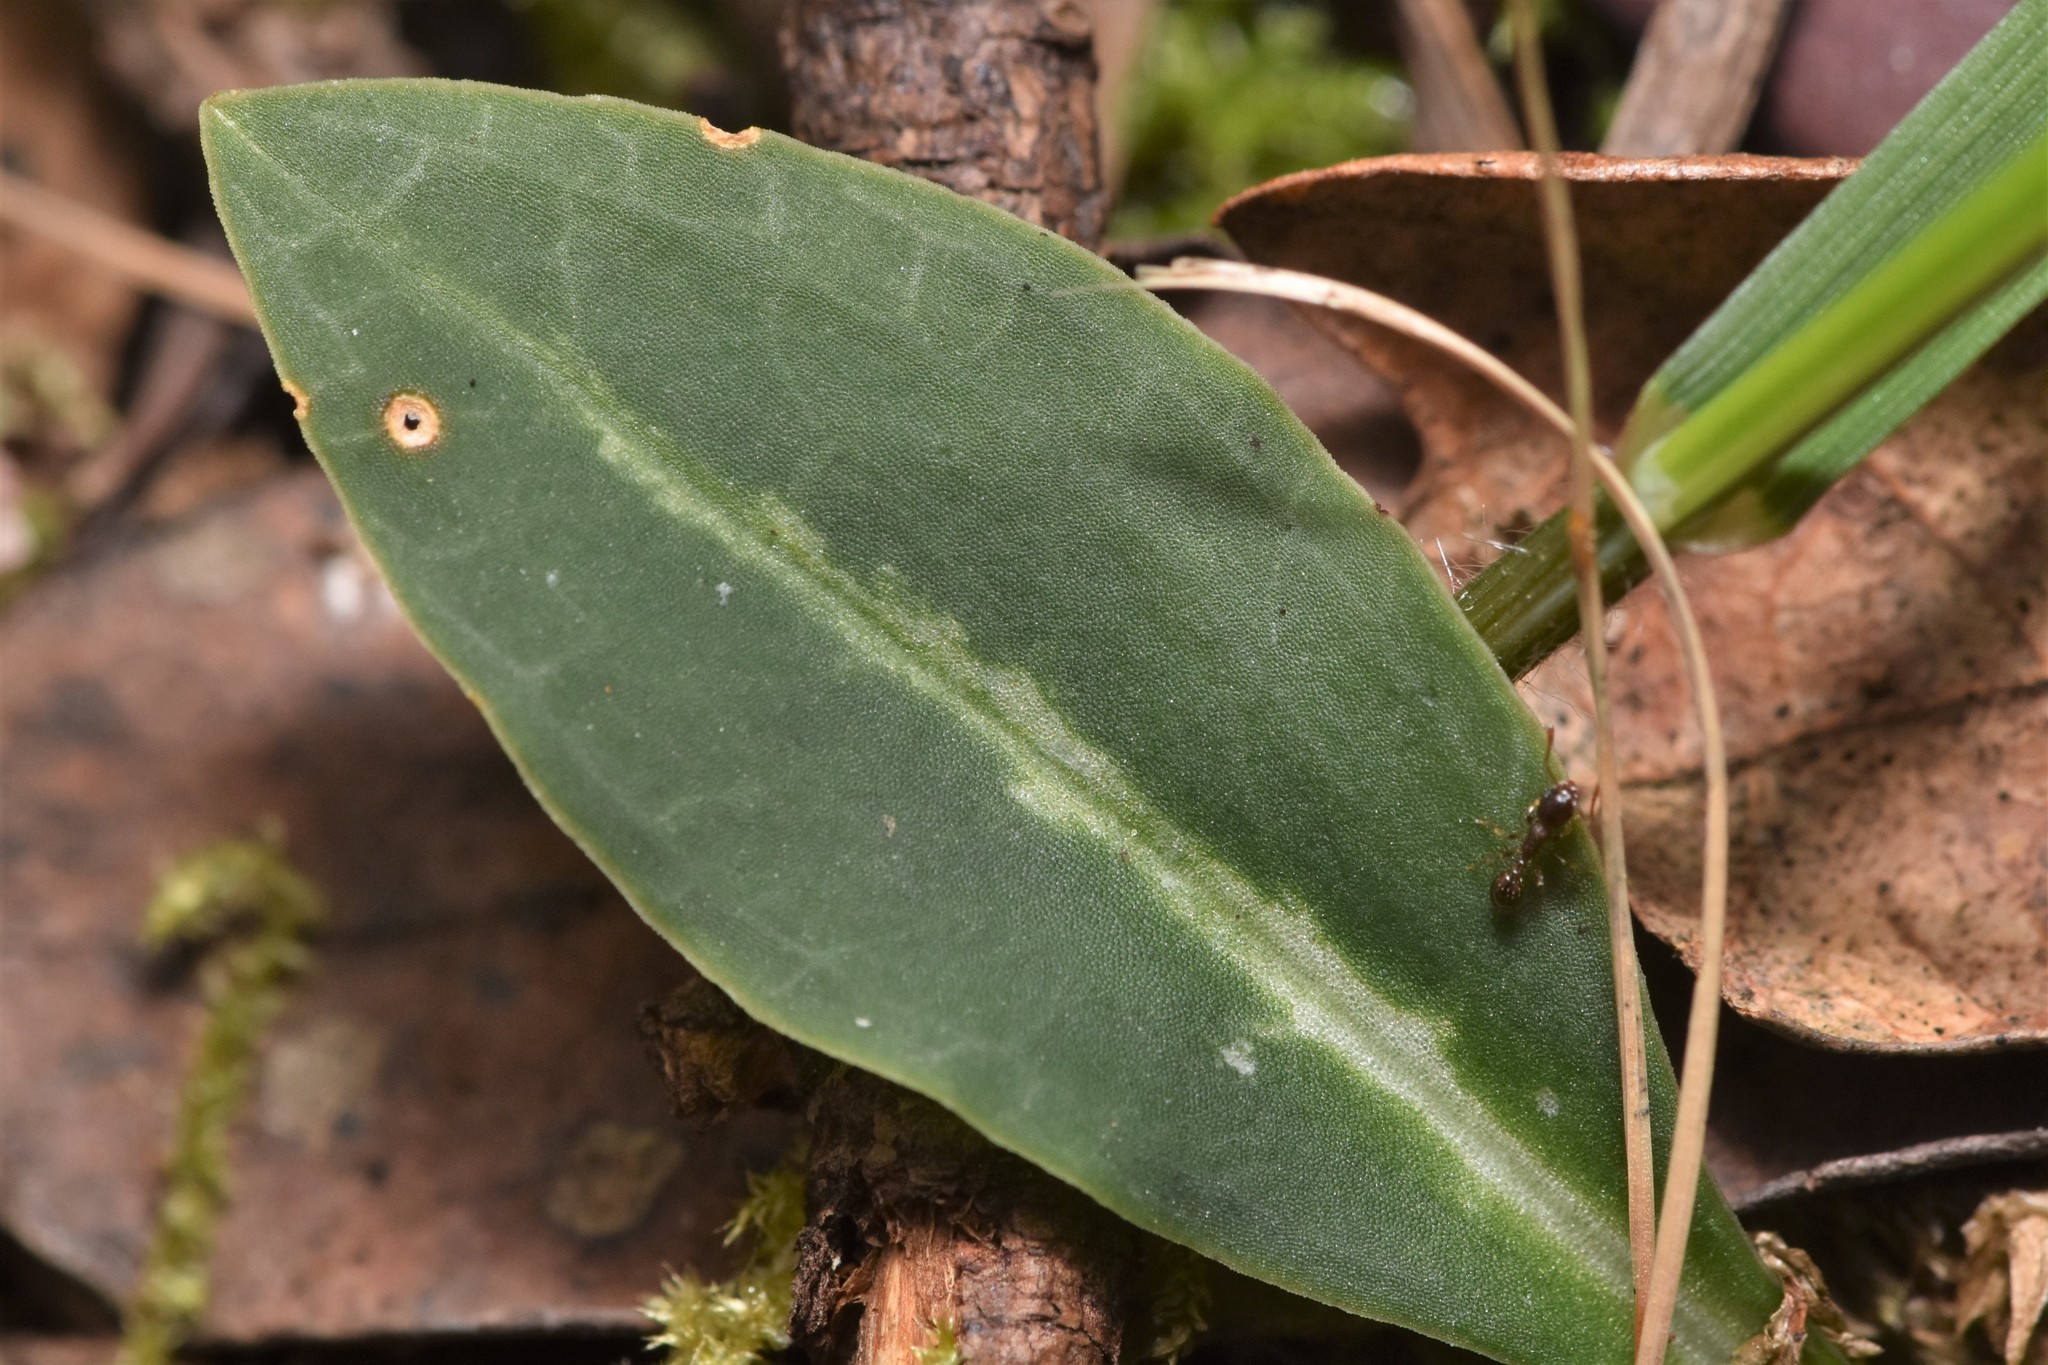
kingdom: Plantae
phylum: Tracheophyta
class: Liliopsida
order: Asparagales
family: Orchidaceae
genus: Goodyera
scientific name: Goodyera oblongifolia
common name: Giant rattlesnake-plantain
